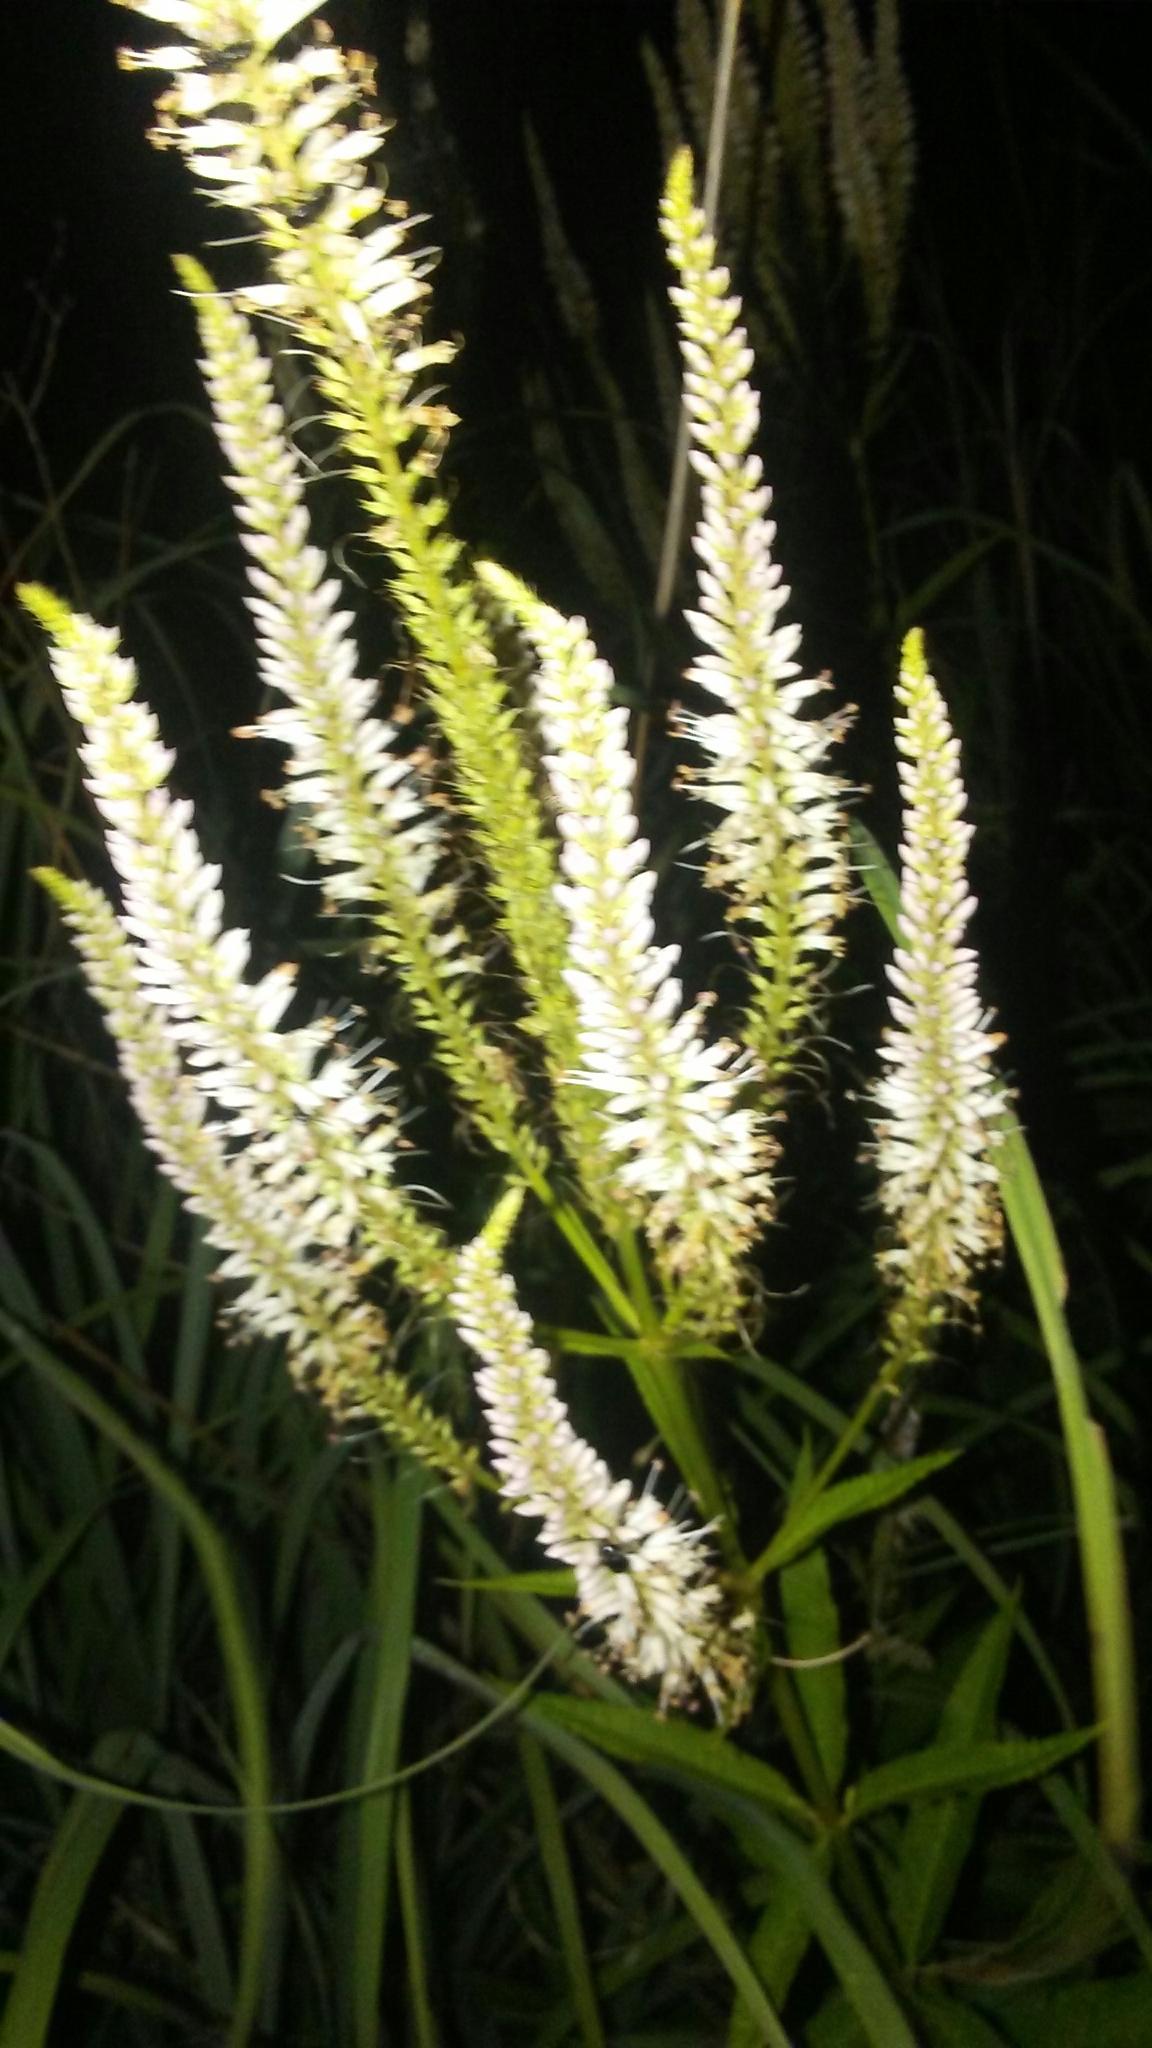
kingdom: Plantae
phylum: Tracheophyta
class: Magnoliopsida
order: Lamiales
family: Plantaginaceae
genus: Veronicastrum
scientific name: Veronicastrum virginicum
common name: Blackroot
